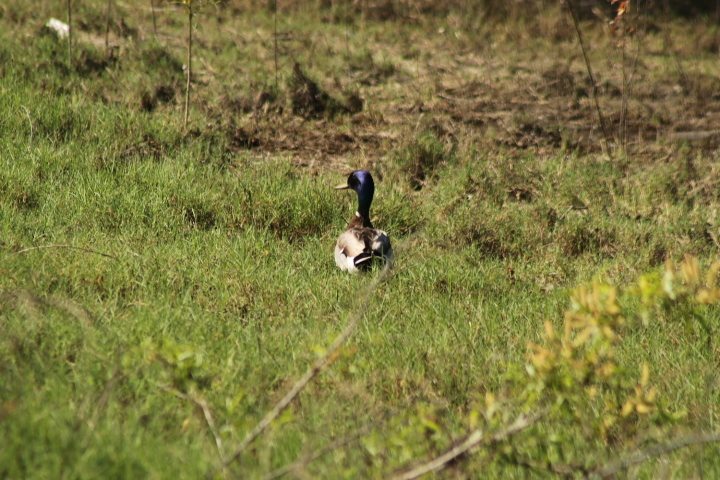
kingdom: Animalia
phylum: Chordata
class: Aves
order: Anseriformes
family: Anatidae
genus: Anas
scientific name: Anas platyrhynchos
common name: Mallard
